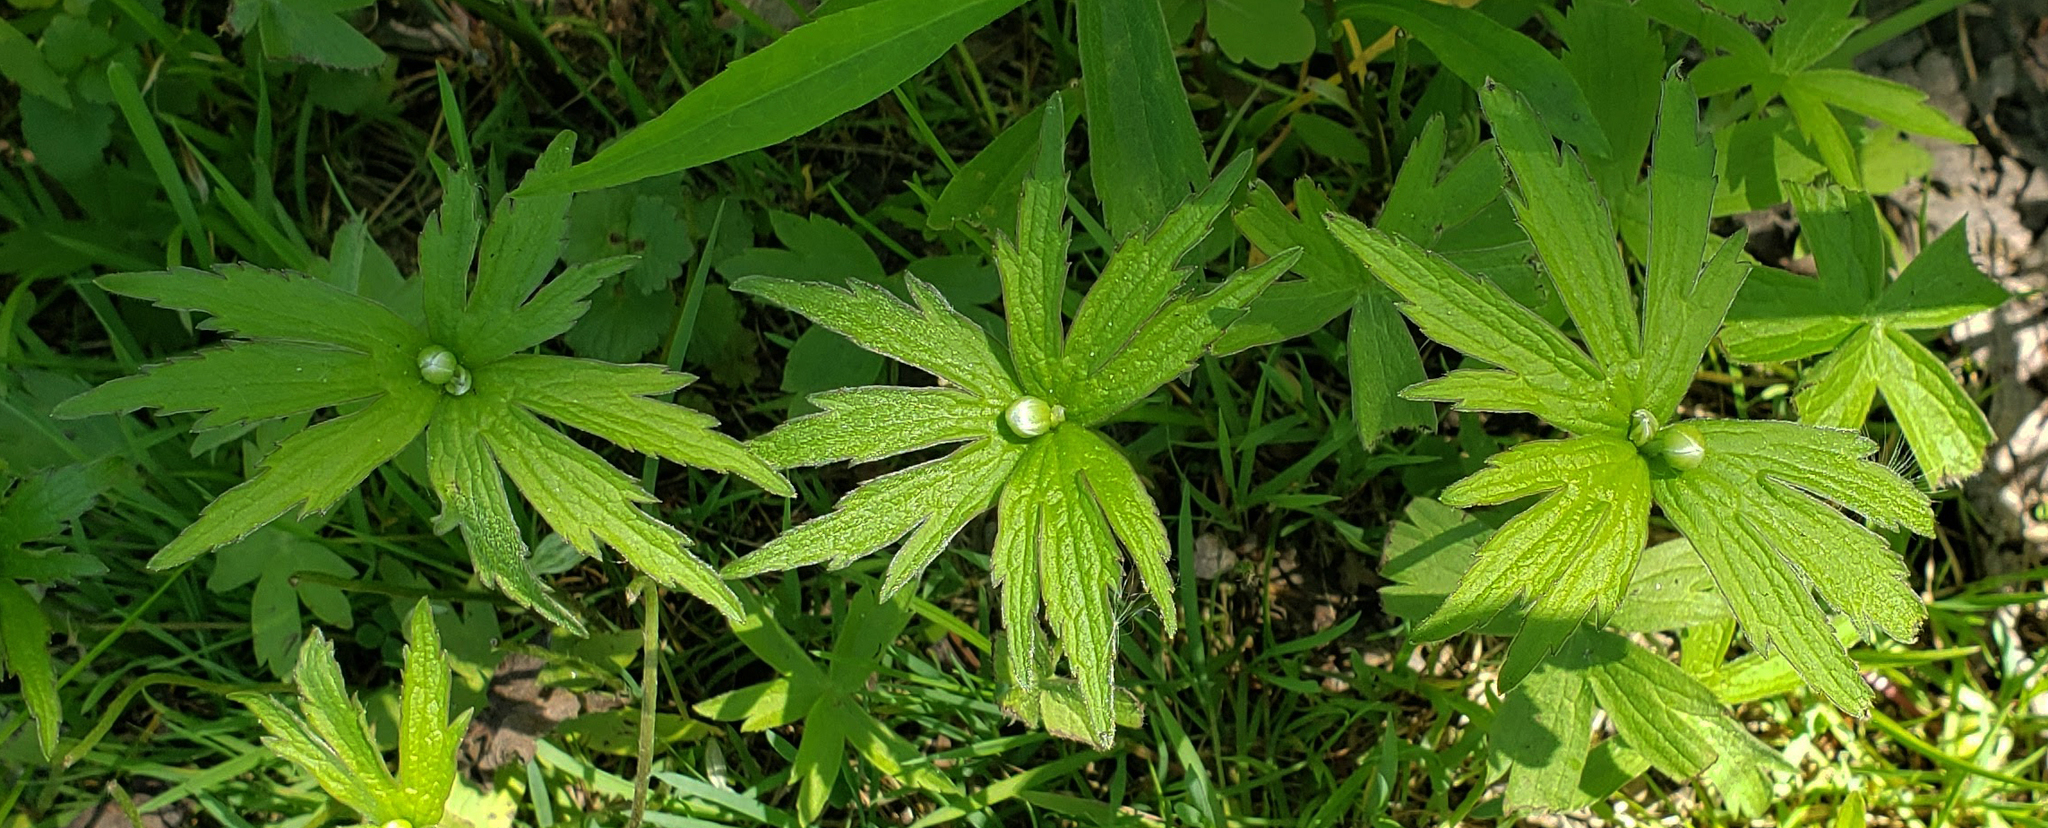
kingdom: Plantae
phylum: Tracheophyta
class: Magnoliopsida
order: Ranunculales
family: Ranunculaceae
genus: Anemonastrum
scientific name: Anemonastrum canadense
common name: Canada anemone
